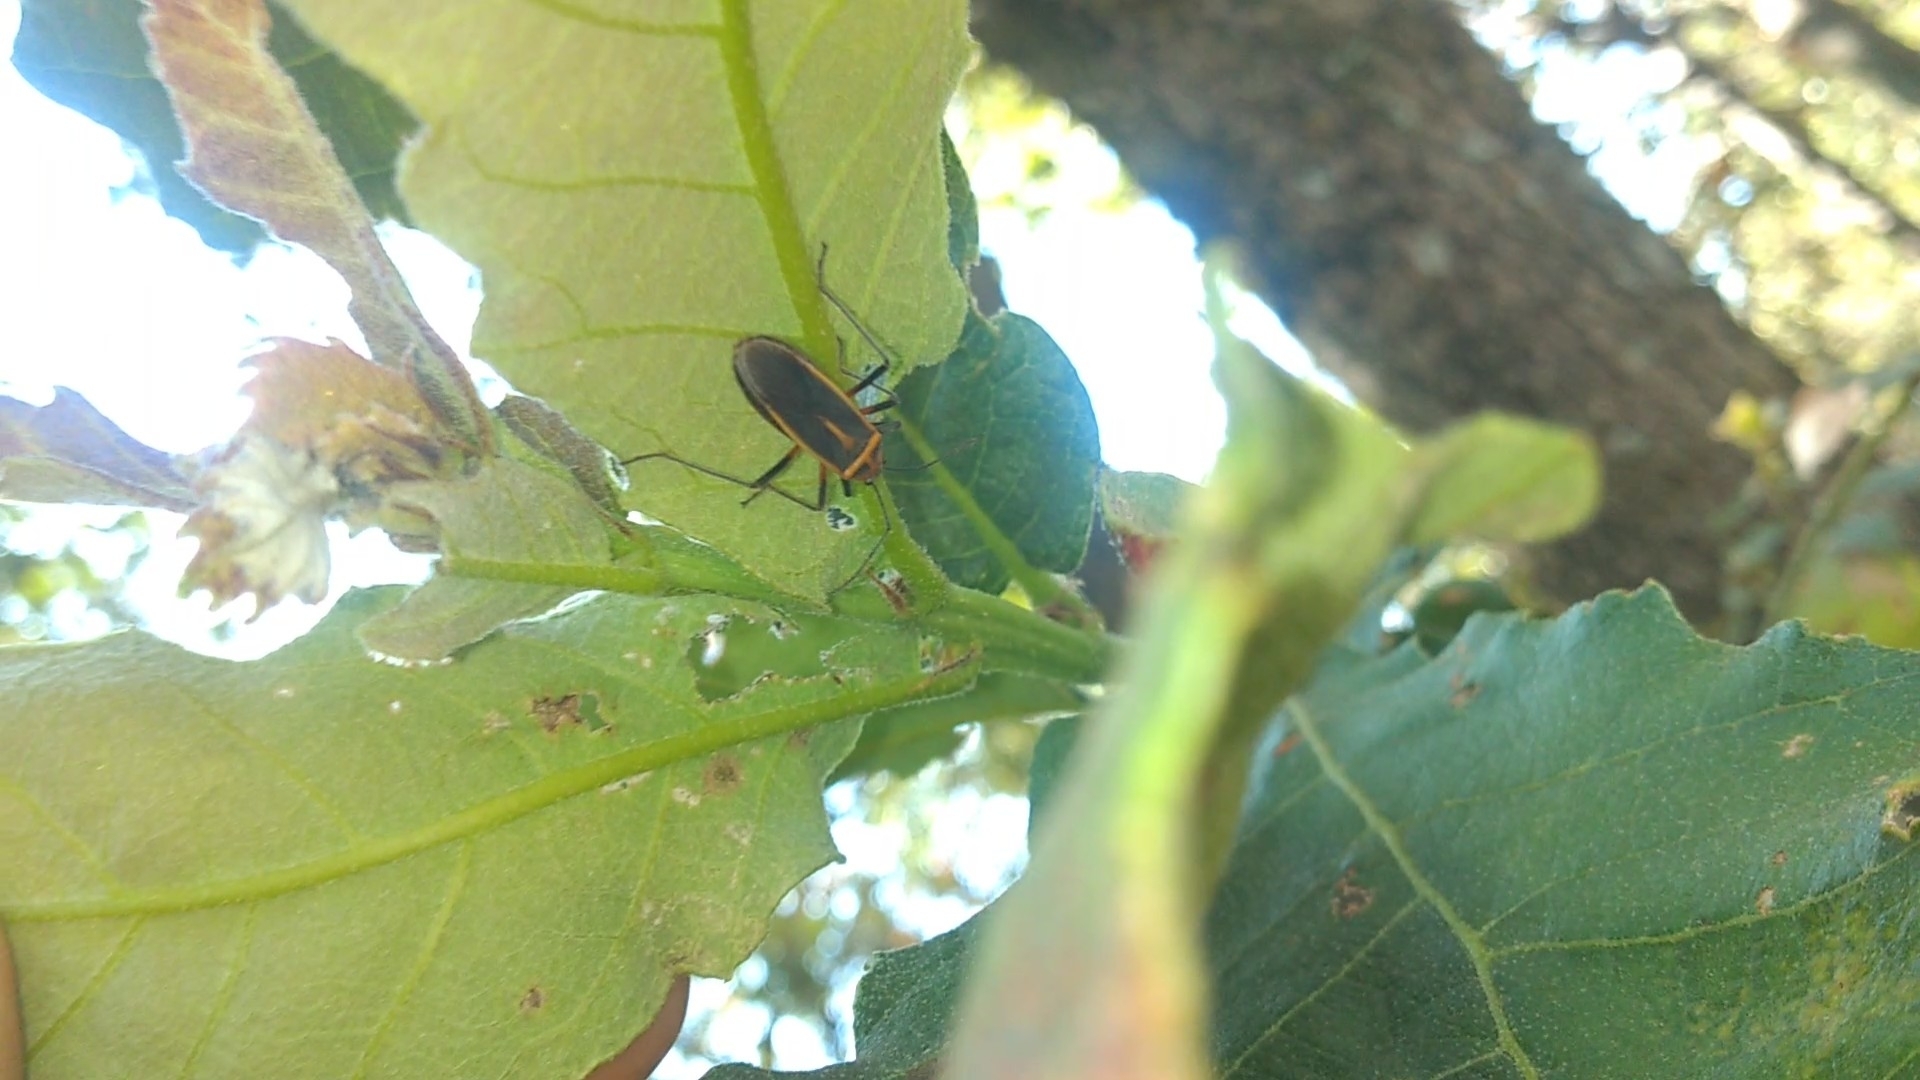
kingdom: Animalia
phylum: Arthropoda
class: Insecta
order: Hemiptera
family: Largidae
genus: Stenomacra
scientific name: Stenomacra marginella
